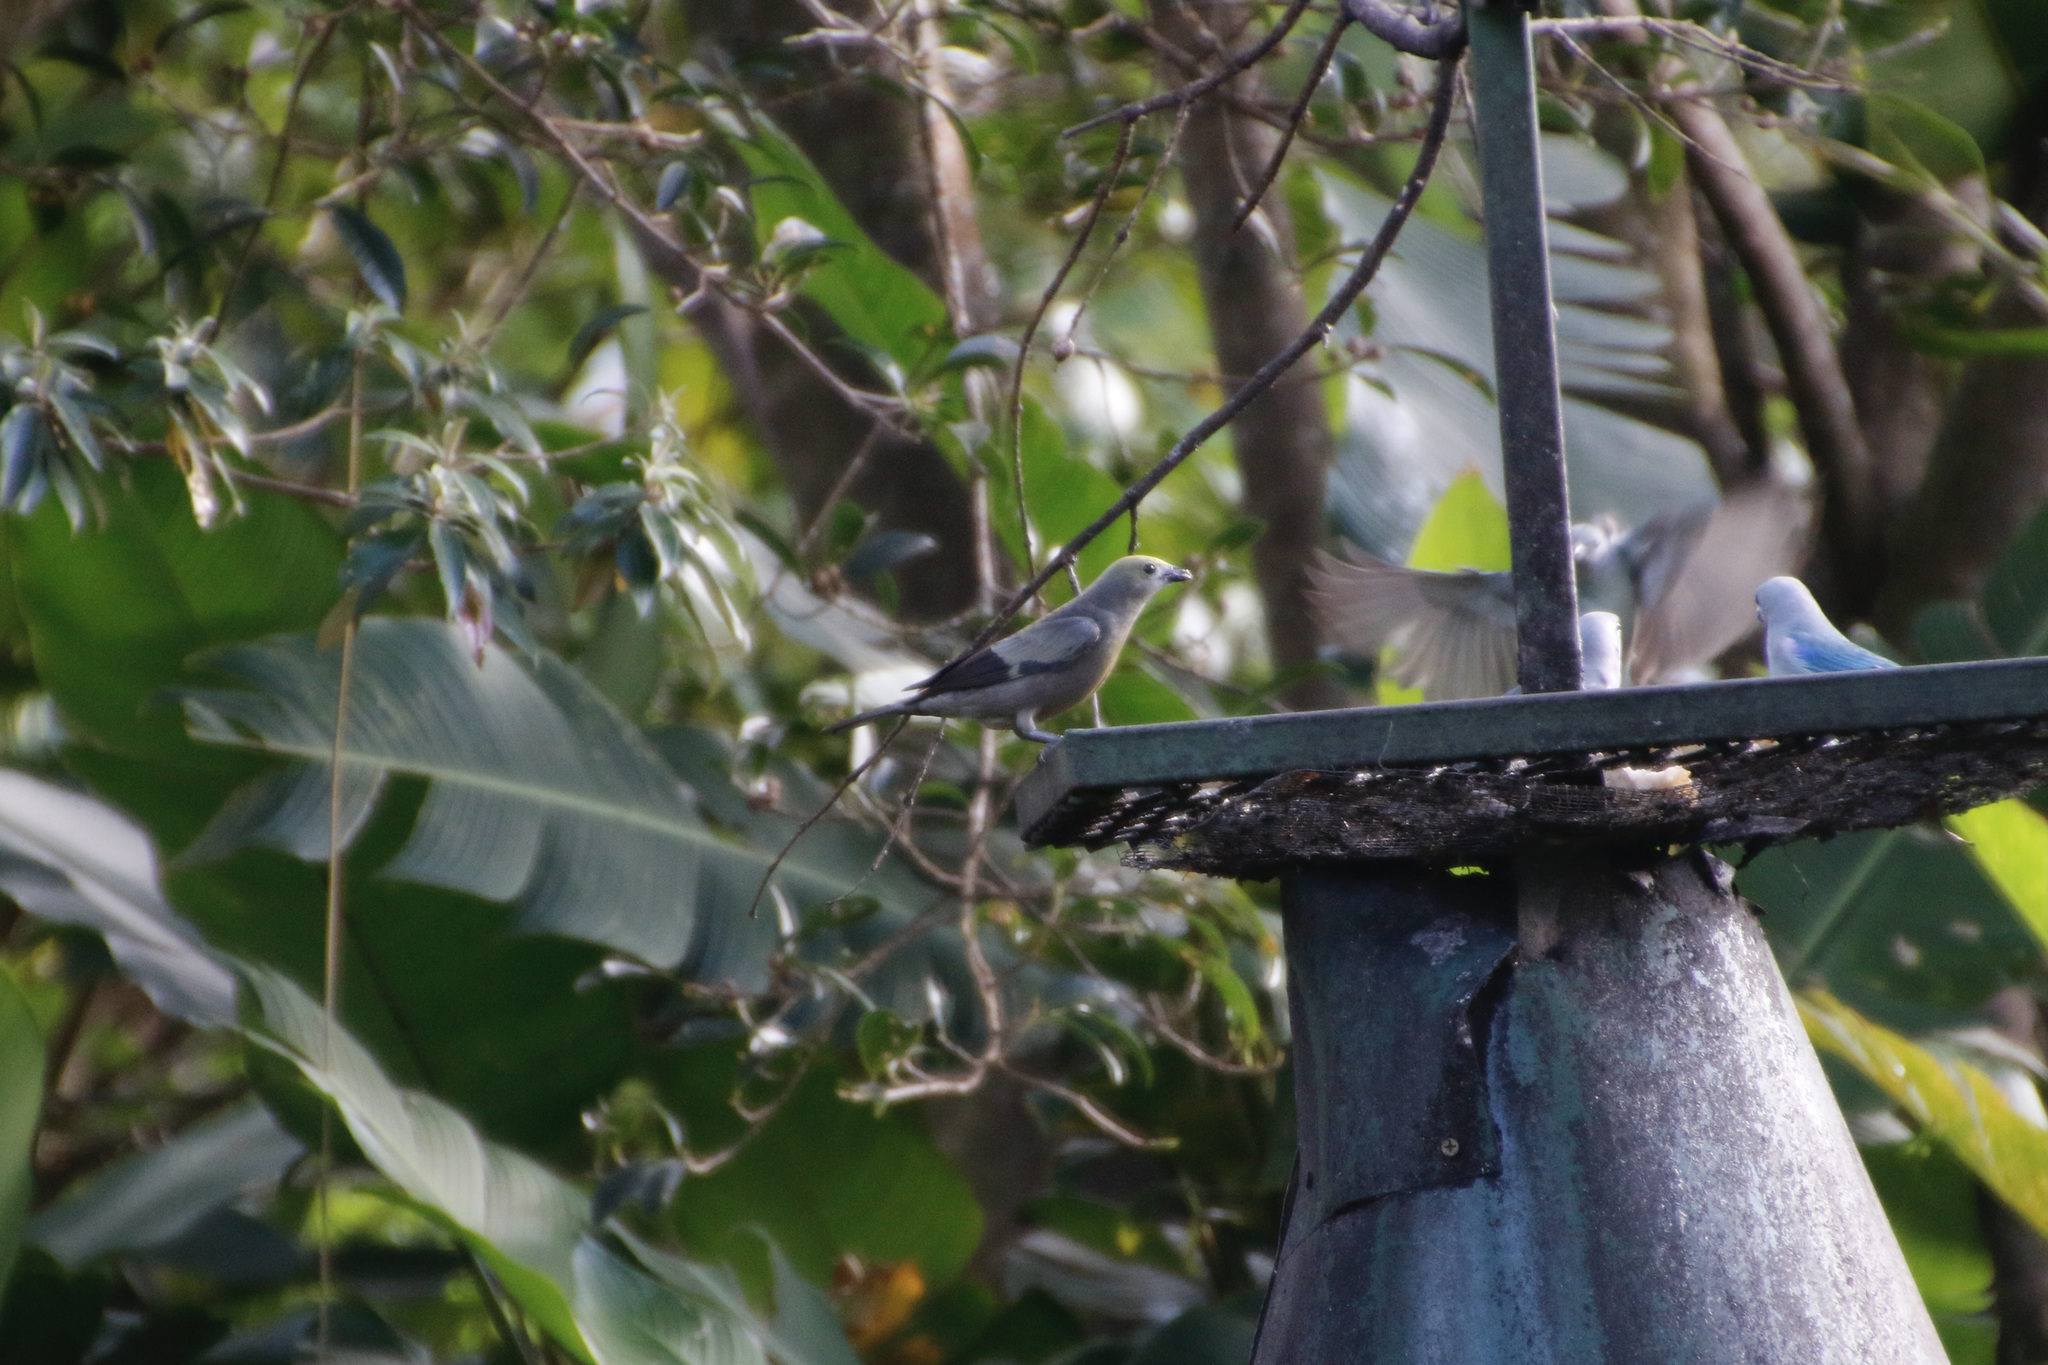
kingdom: Animalia
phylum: Chordata
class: Aves
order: Passeriformes
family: Thraupidae
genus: Thraupis
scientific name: Thraupis palmarum
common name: Palm tanager
